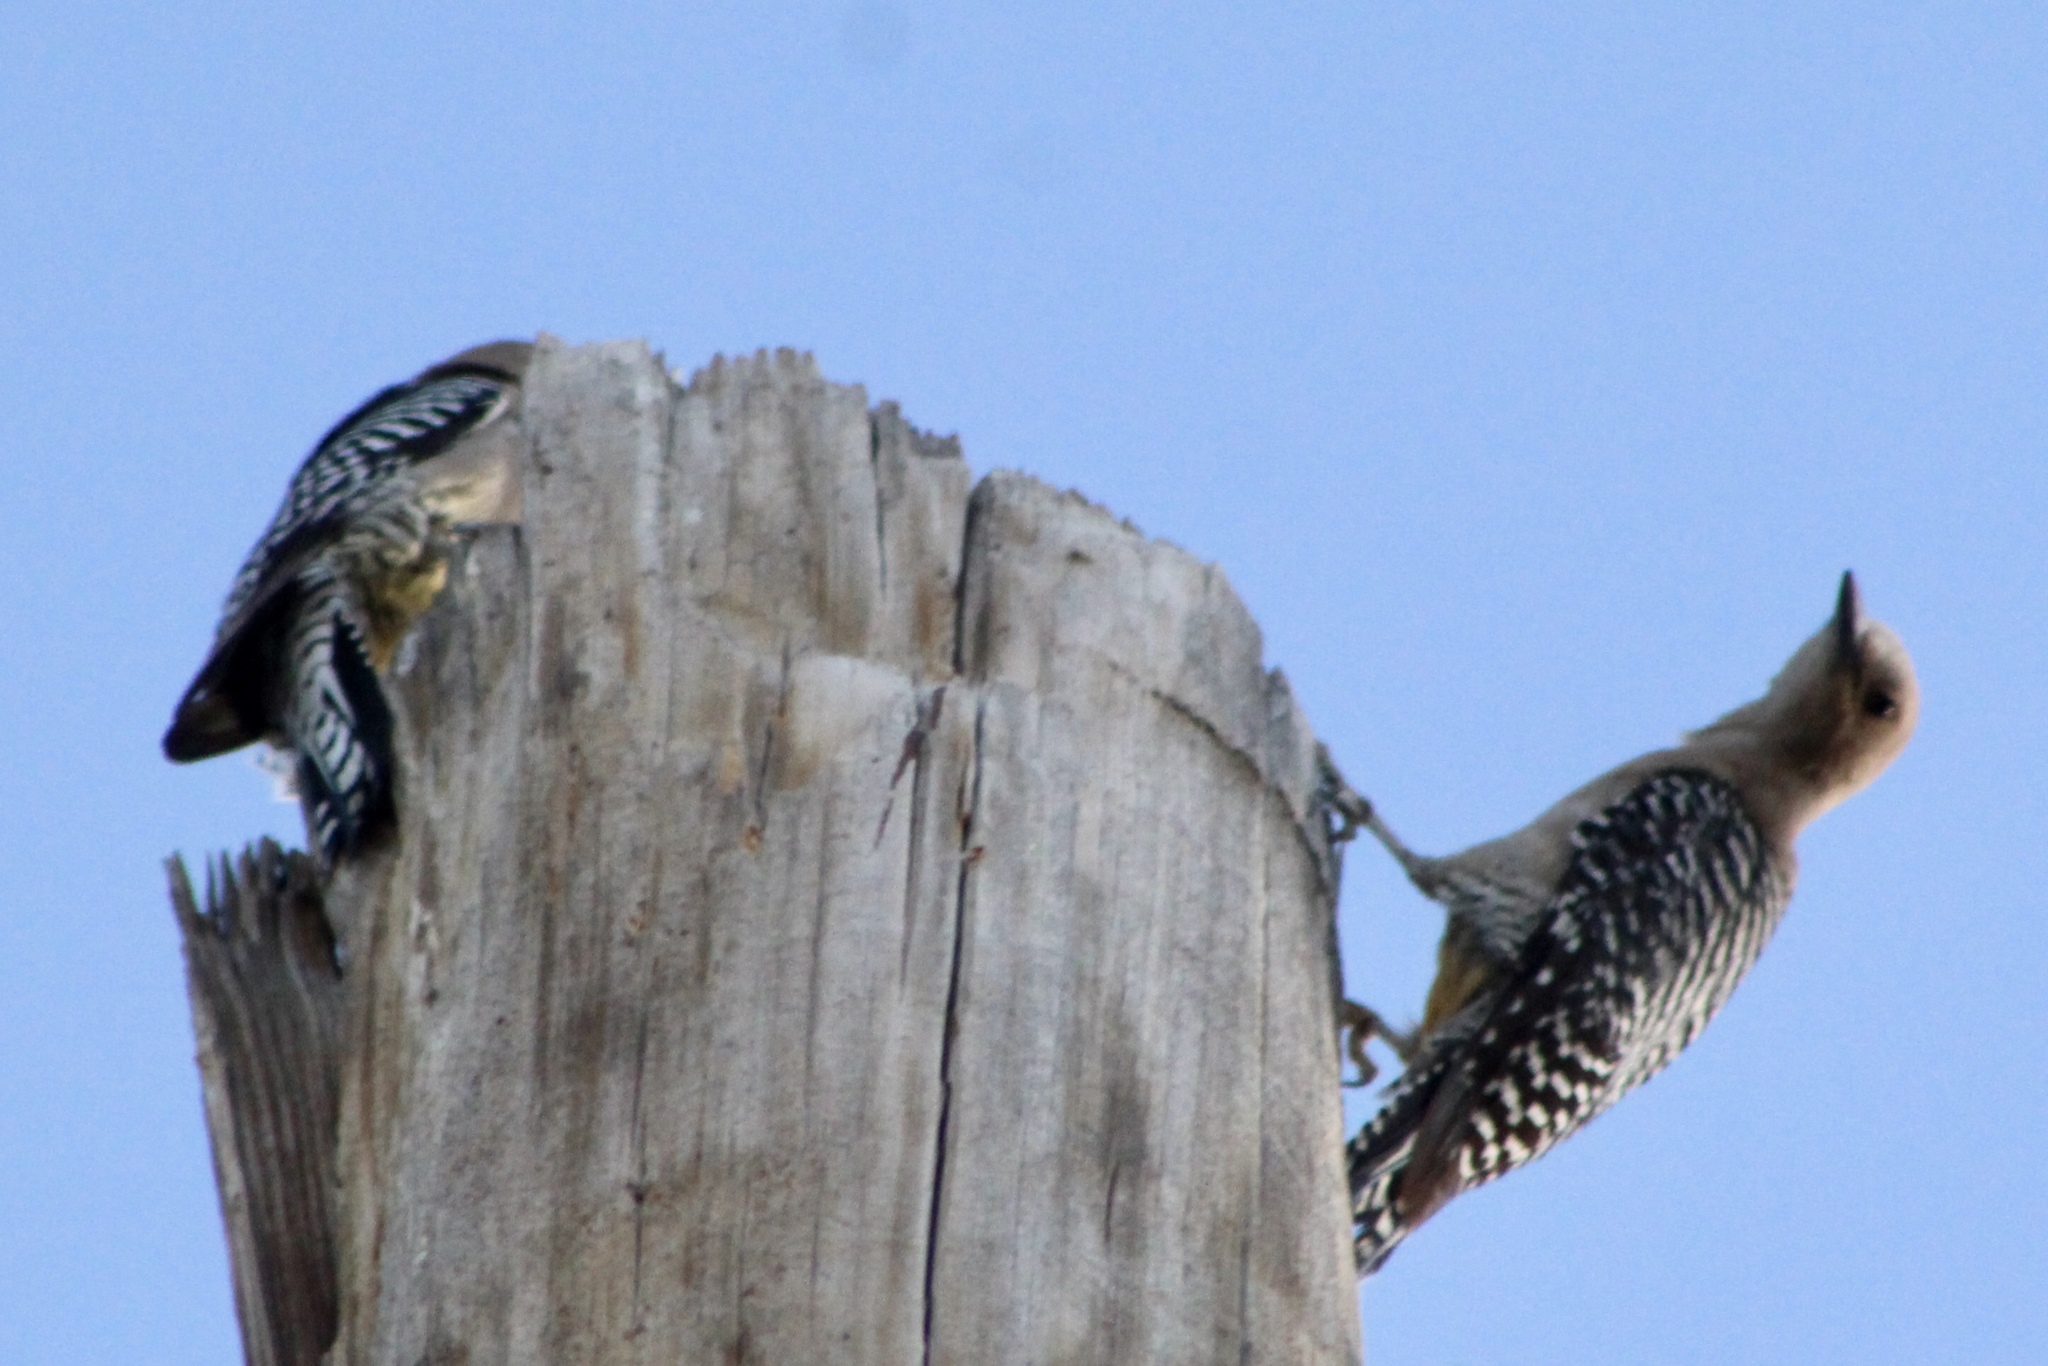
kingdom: Animalia
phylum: Chordata
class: Aves
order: Piciformes
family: Picidae
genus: Melanerpes
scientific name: Melanerpes uropygialis
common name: Gila woodpecker
